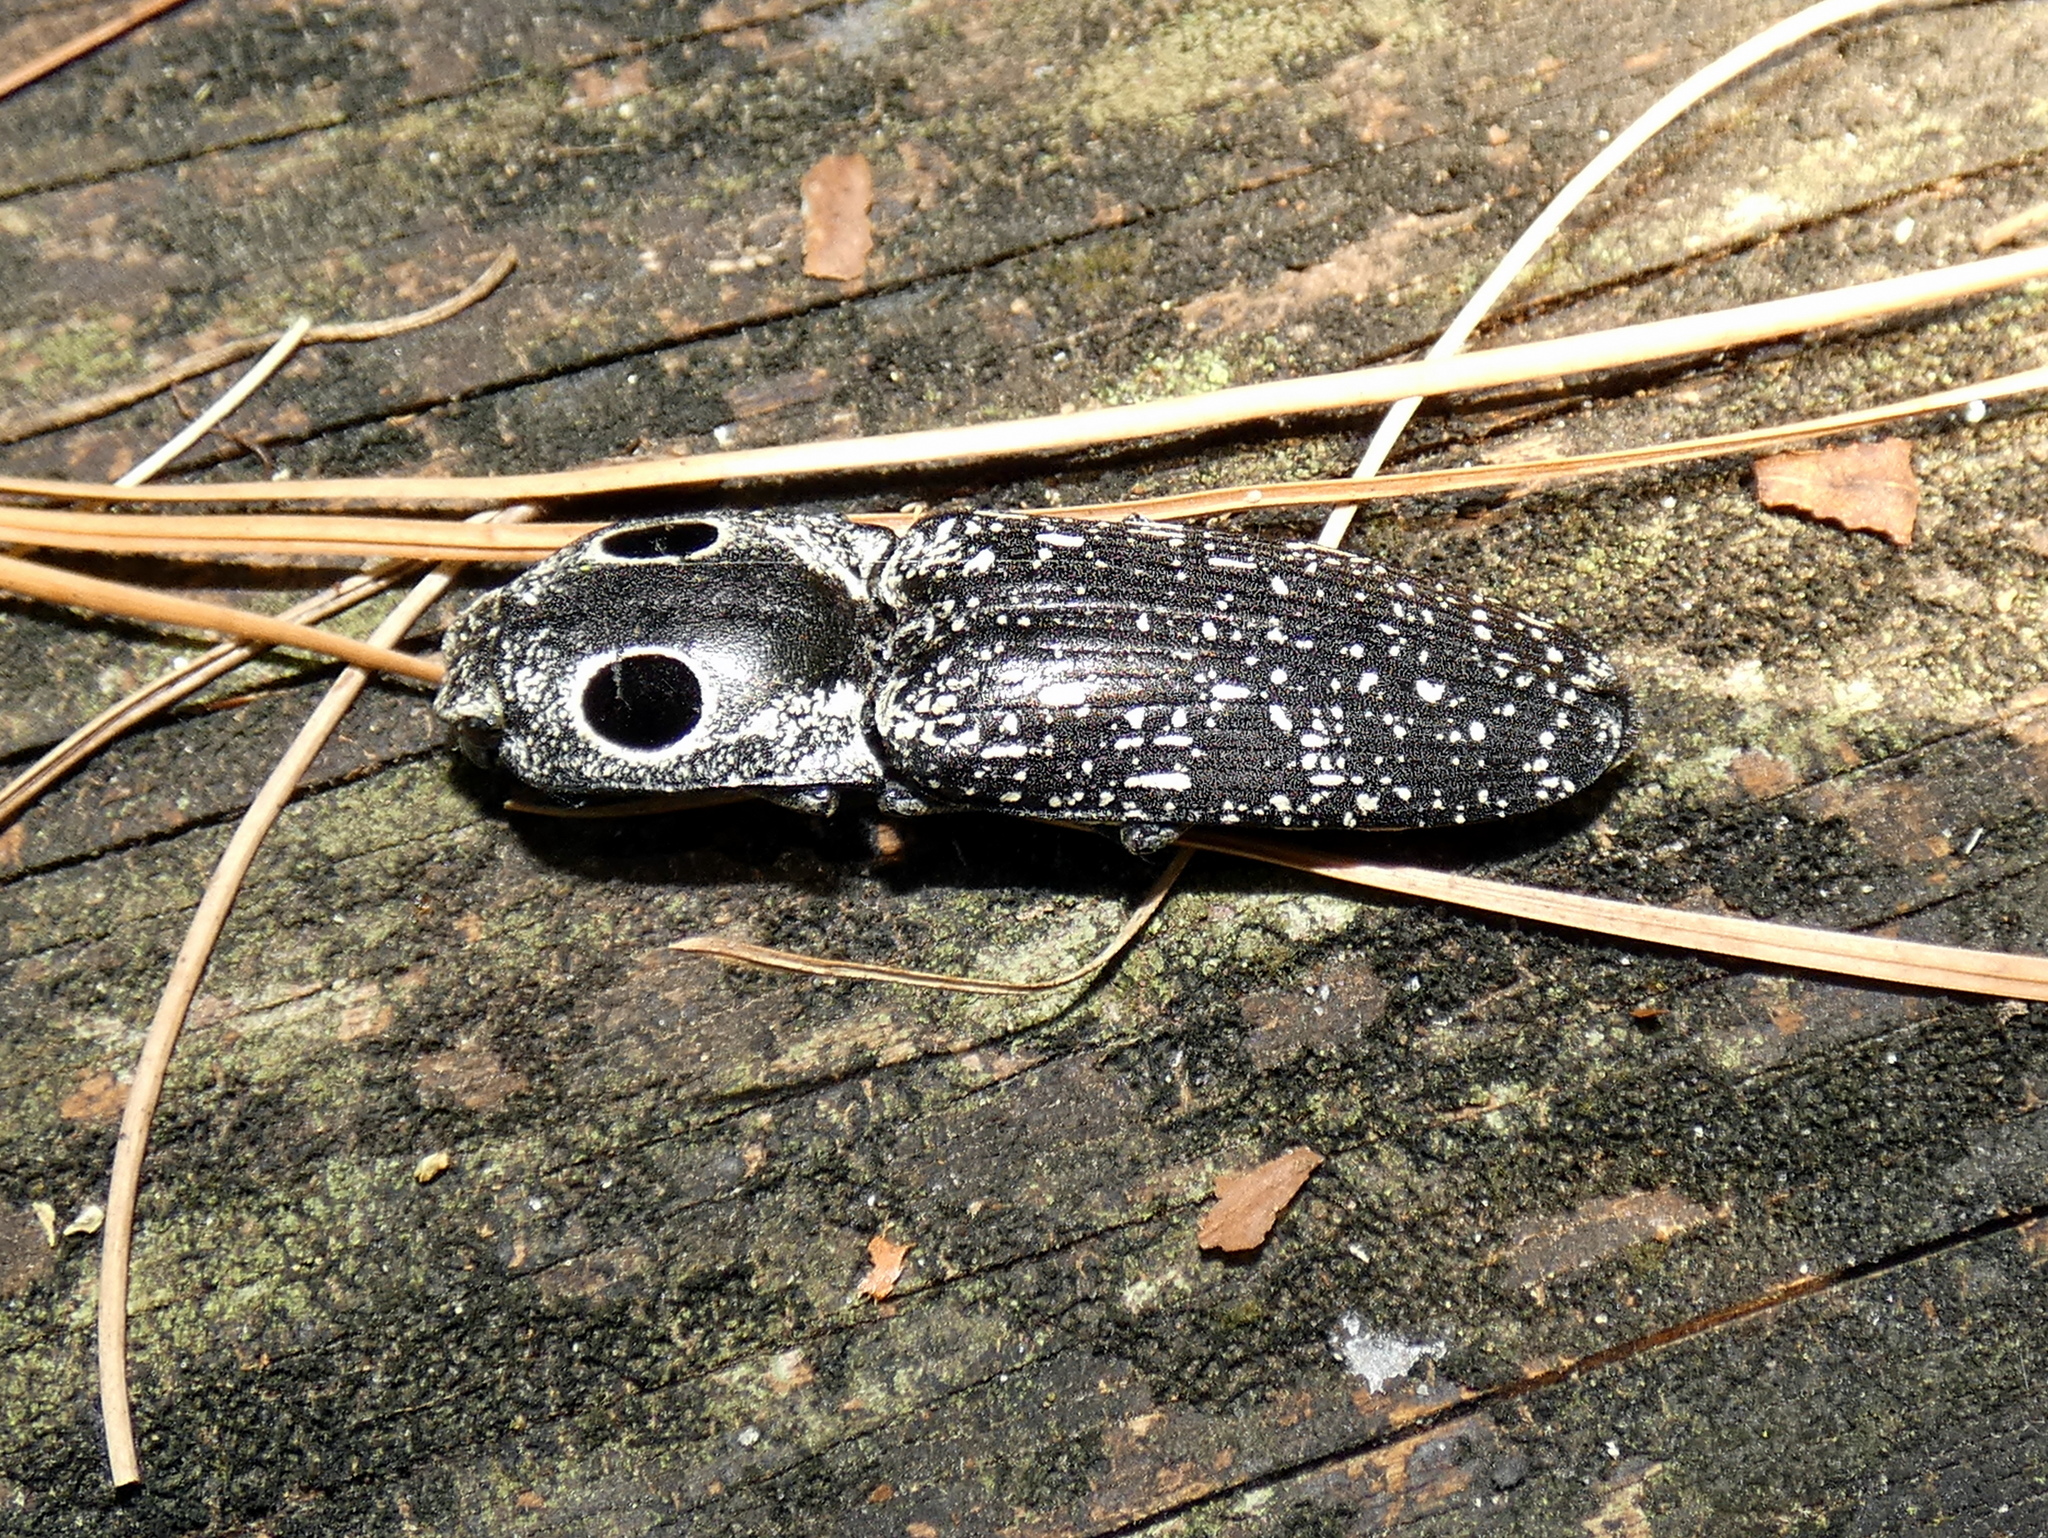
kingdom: Animalia
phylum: Arthropoda
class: Insecta
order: Coleoptera
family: Elateridae
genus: Alaus
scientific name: Alaus oculatus
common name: Eastern eyed click beetle
